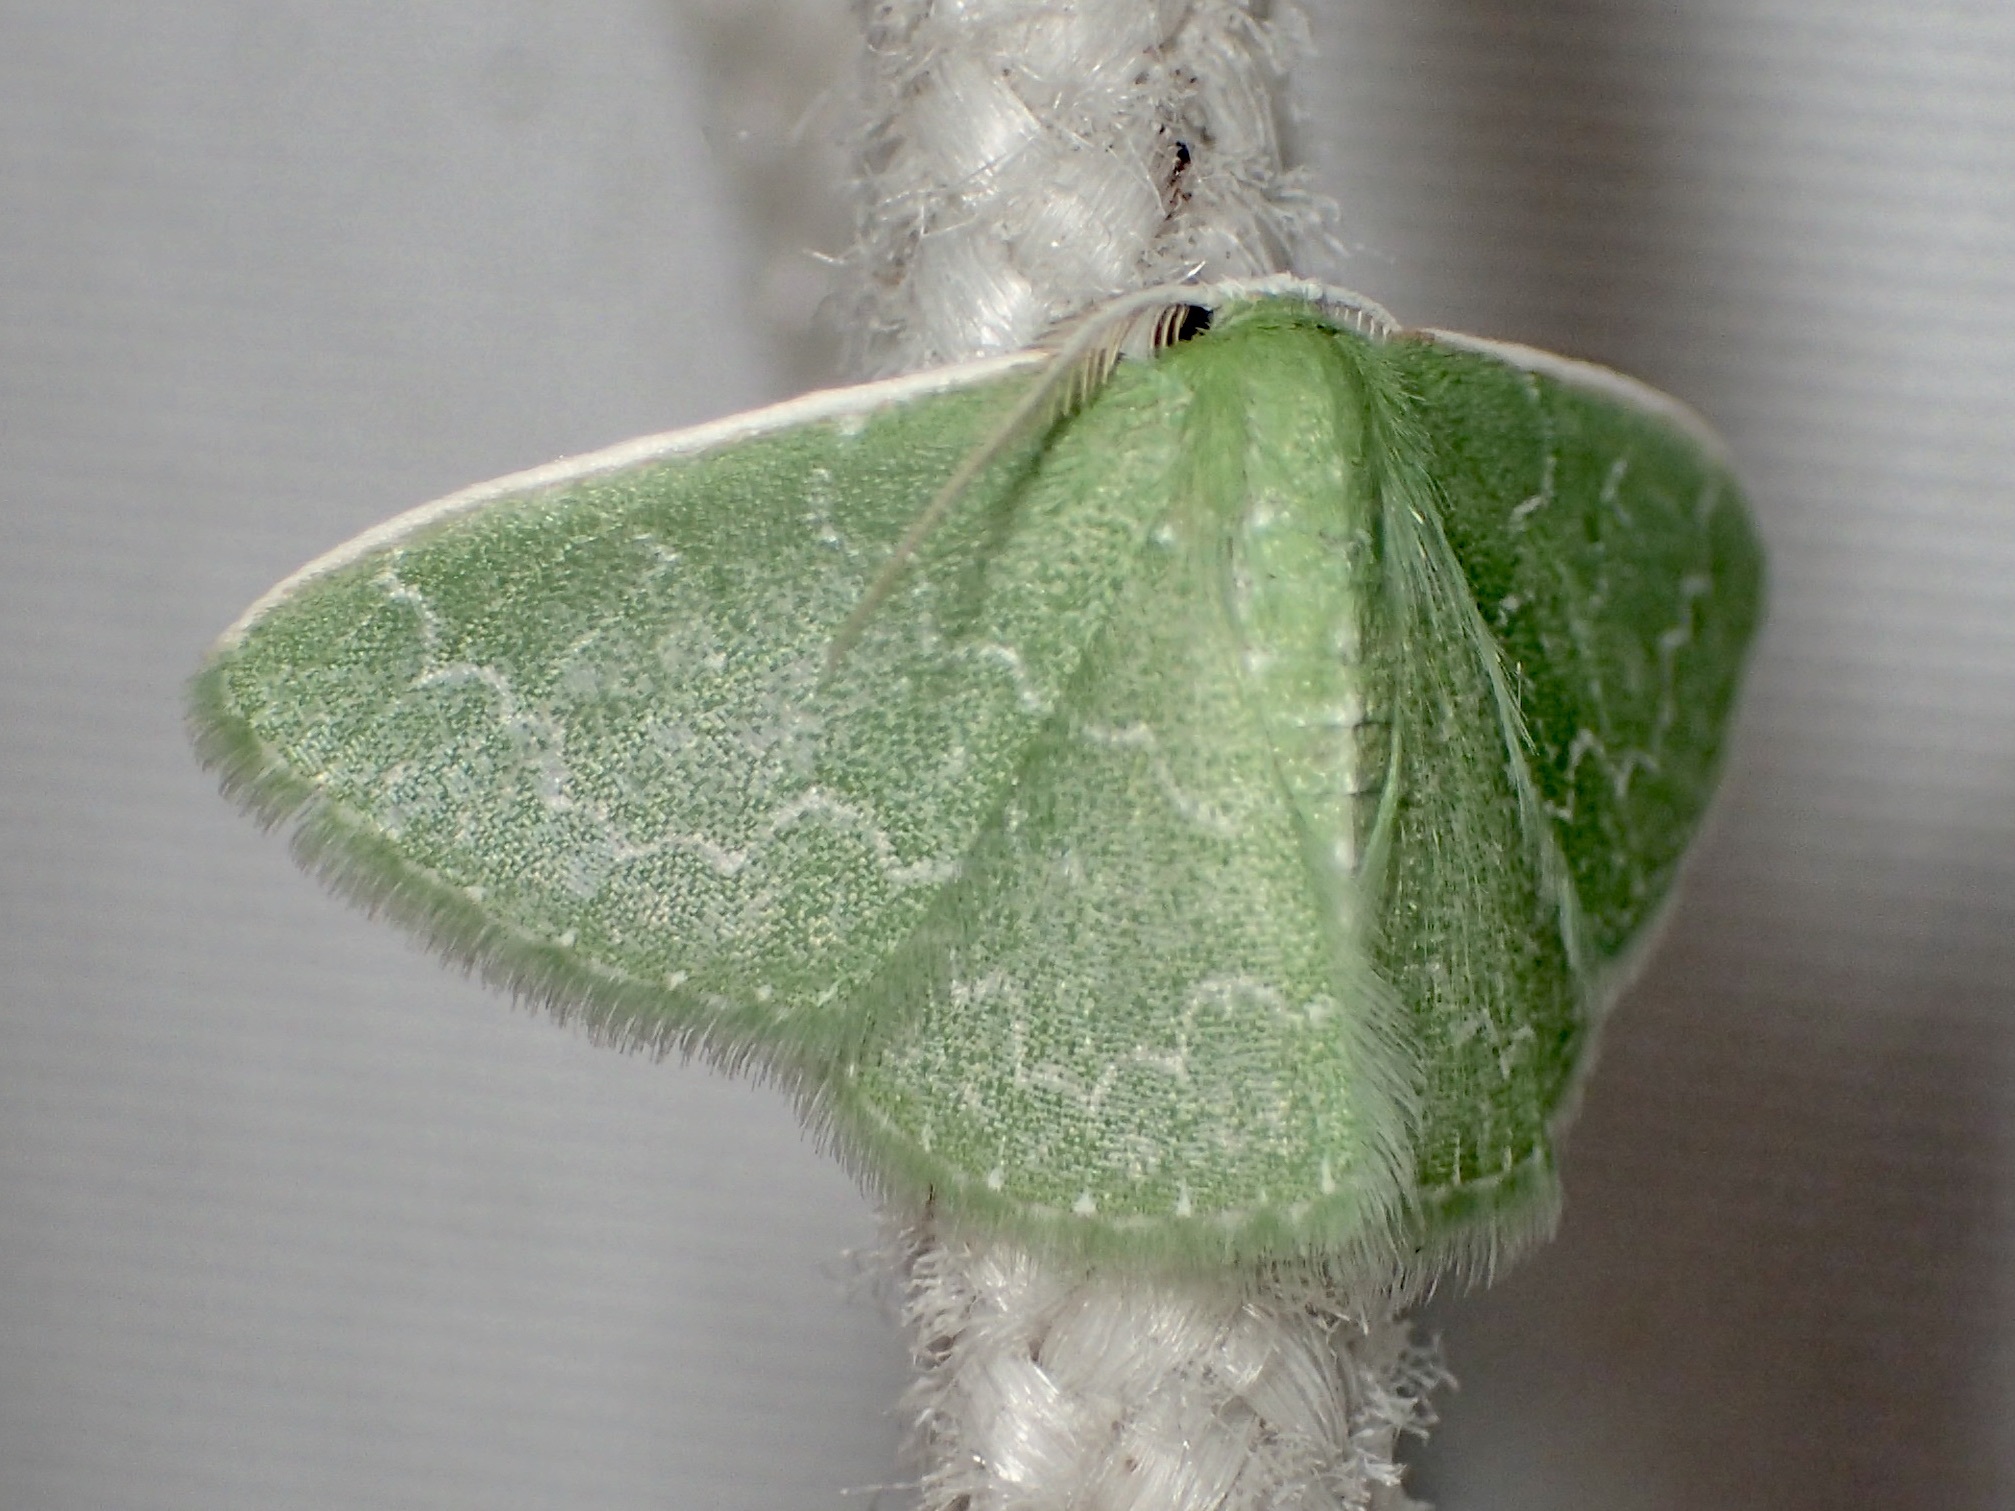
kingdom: Animalia
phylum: Arthropoda
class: Insecta
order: Lepidoptera
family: Geometridae
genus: Synchlora
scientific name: Synchlora frondaria
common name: Southern emerald
